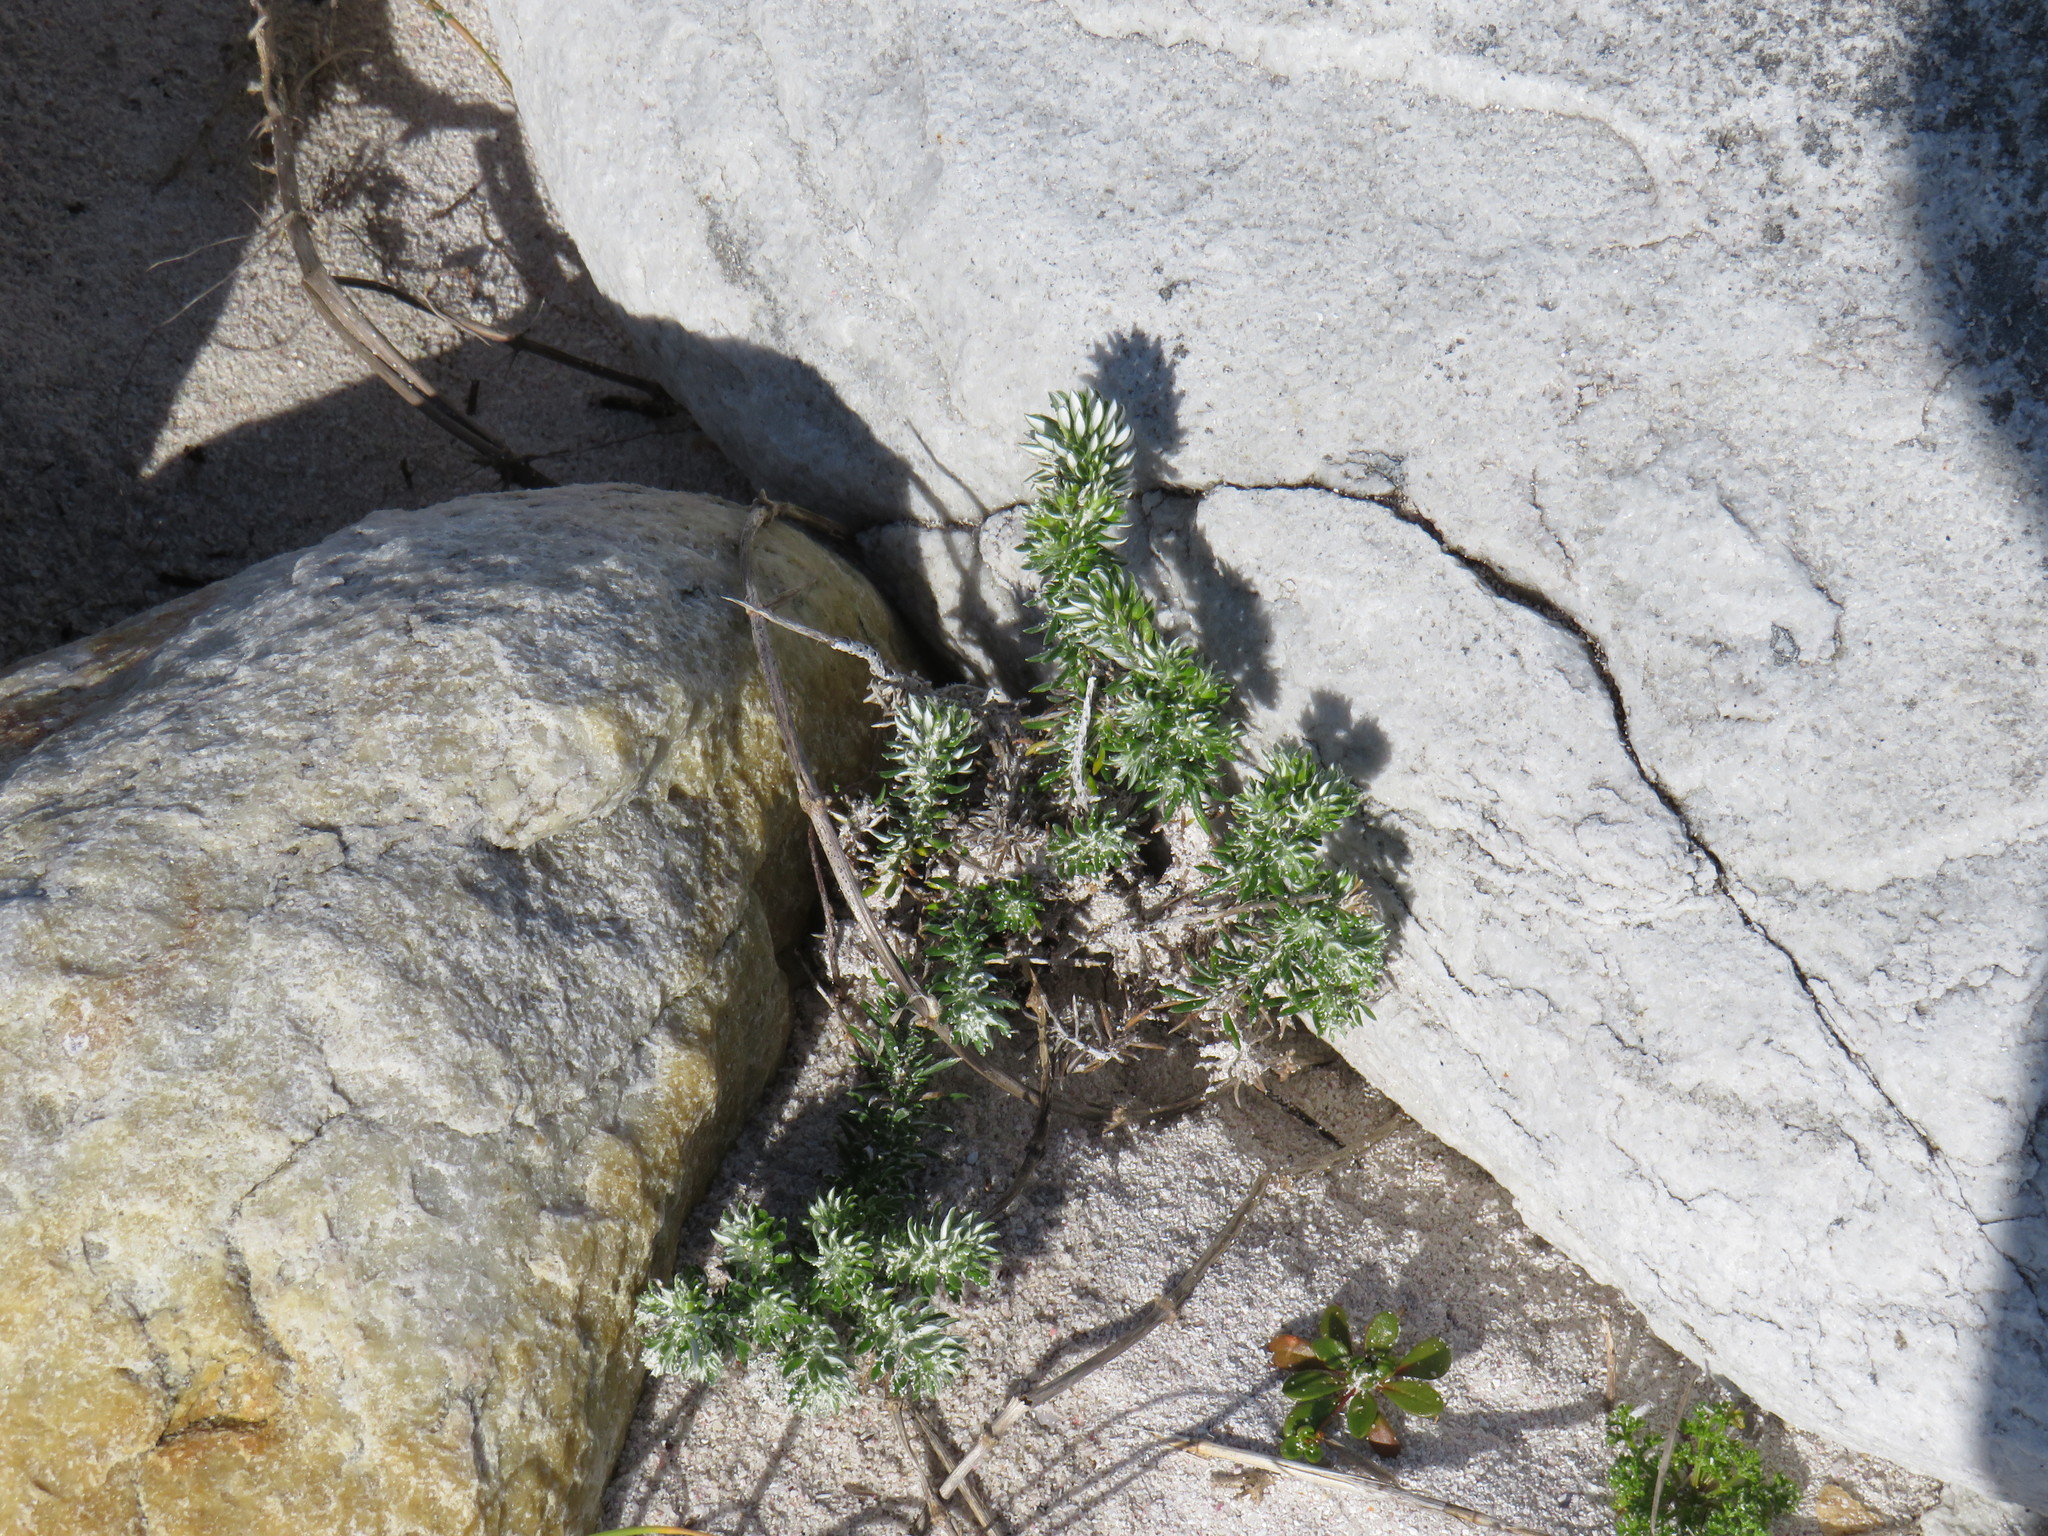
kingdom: Plantae
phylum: Tracheophyta
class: Magnoliopsida
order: Asterales
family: Asteraceae
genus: Metalasia
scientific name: Metalasia muricata
